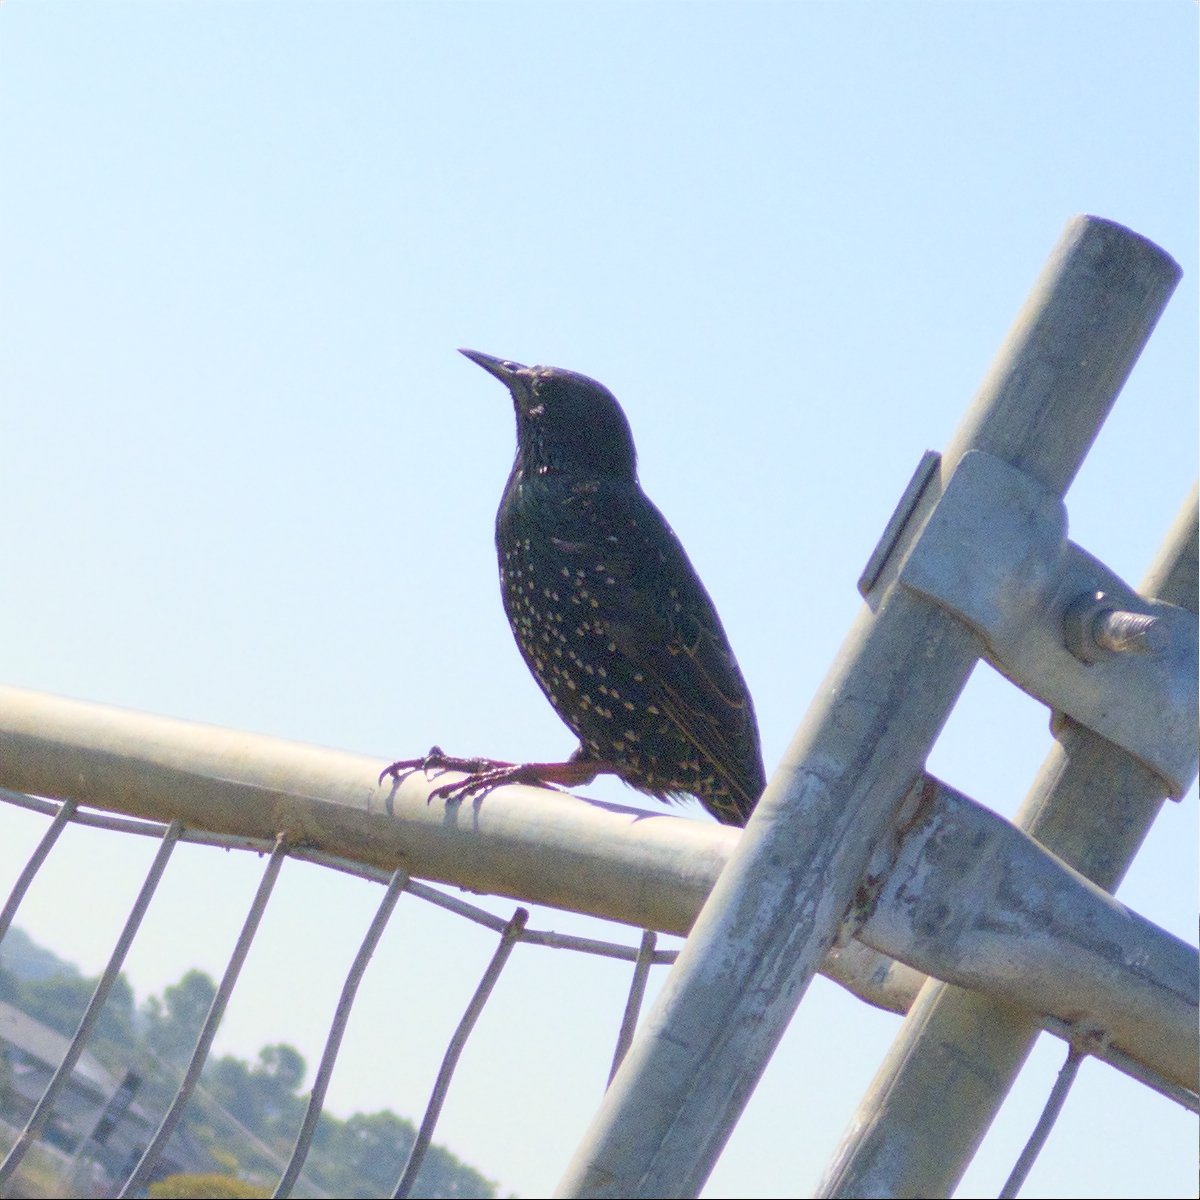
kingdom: Animalia
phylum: Chordata
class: Aves
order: Passeriformes
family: Sturnidae
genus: Sturnus
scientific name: Sturnus vulgaris
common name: Common starling
